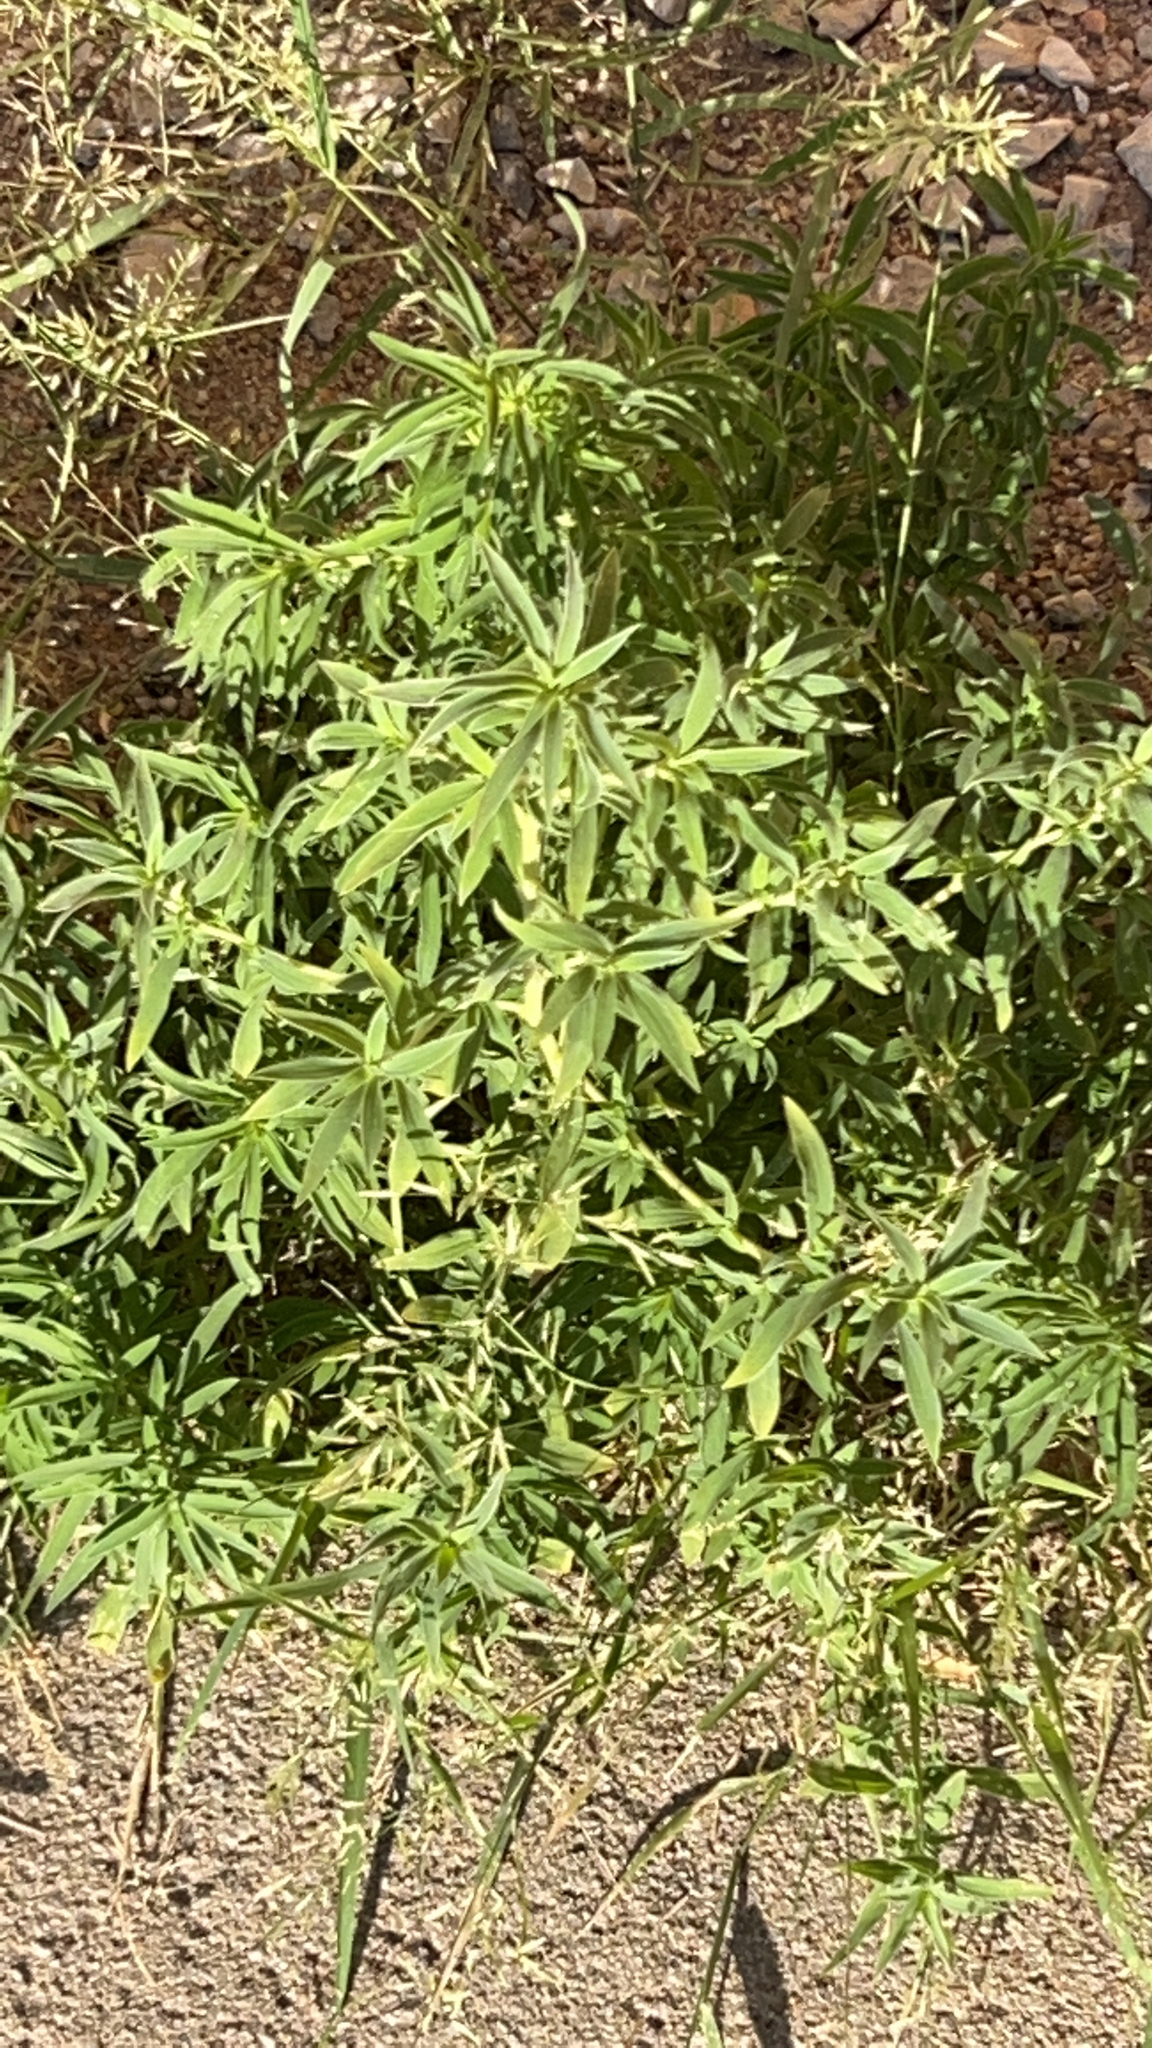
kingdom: Plantae
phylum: Tracheophyta
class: Magnoliopsida
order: Caryophyllales
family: Amaranthaceae
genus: Bassia
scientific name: Bassia scoparia
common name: Belvedere
